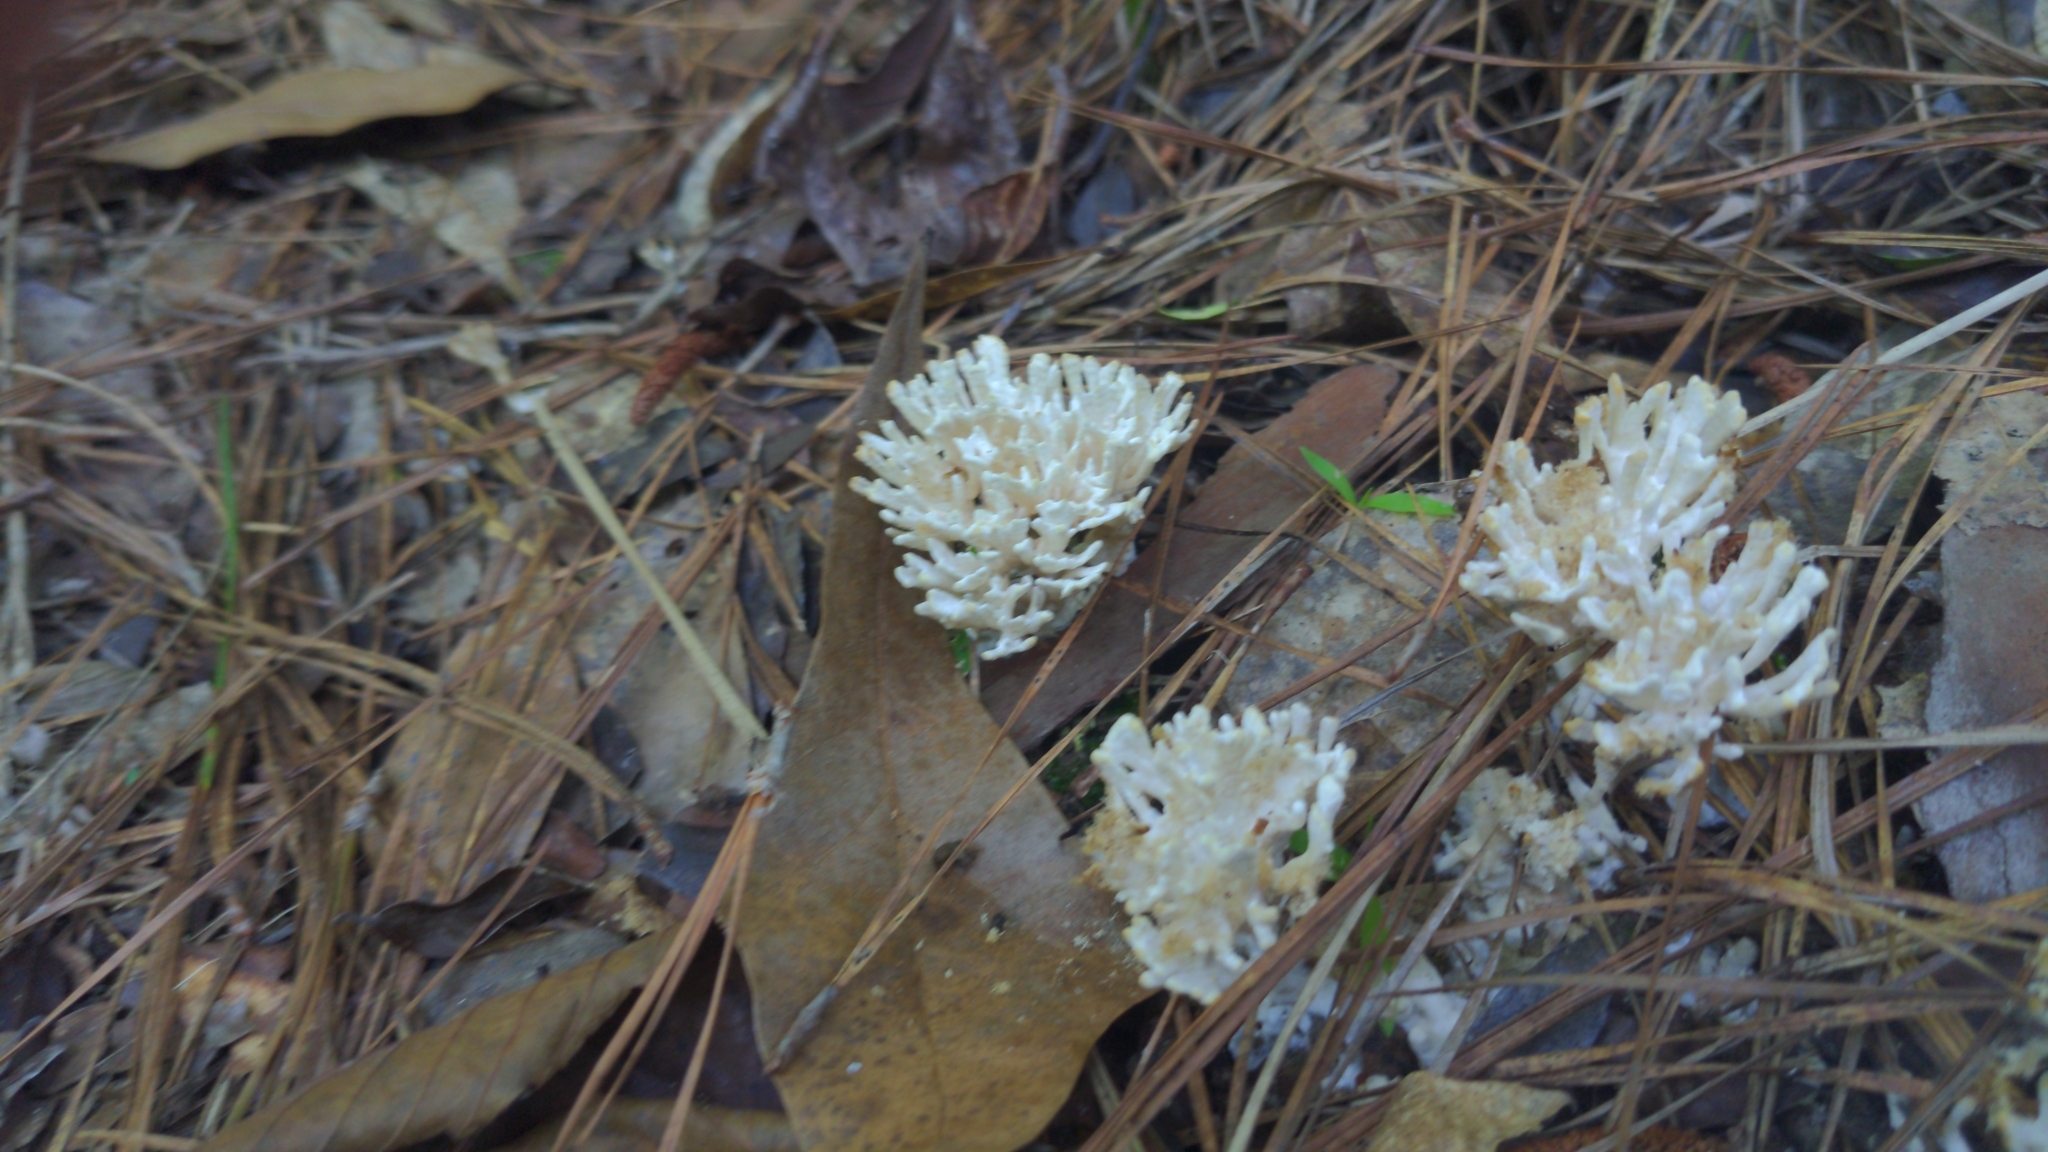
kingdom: Fungi
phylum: Basidiomycota
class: Agaricomycetes
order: Sebacinales
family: Sebacinaceae
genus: Sebacina
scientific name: Sebacina schweinitzii
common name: Jellied false coral fungus
